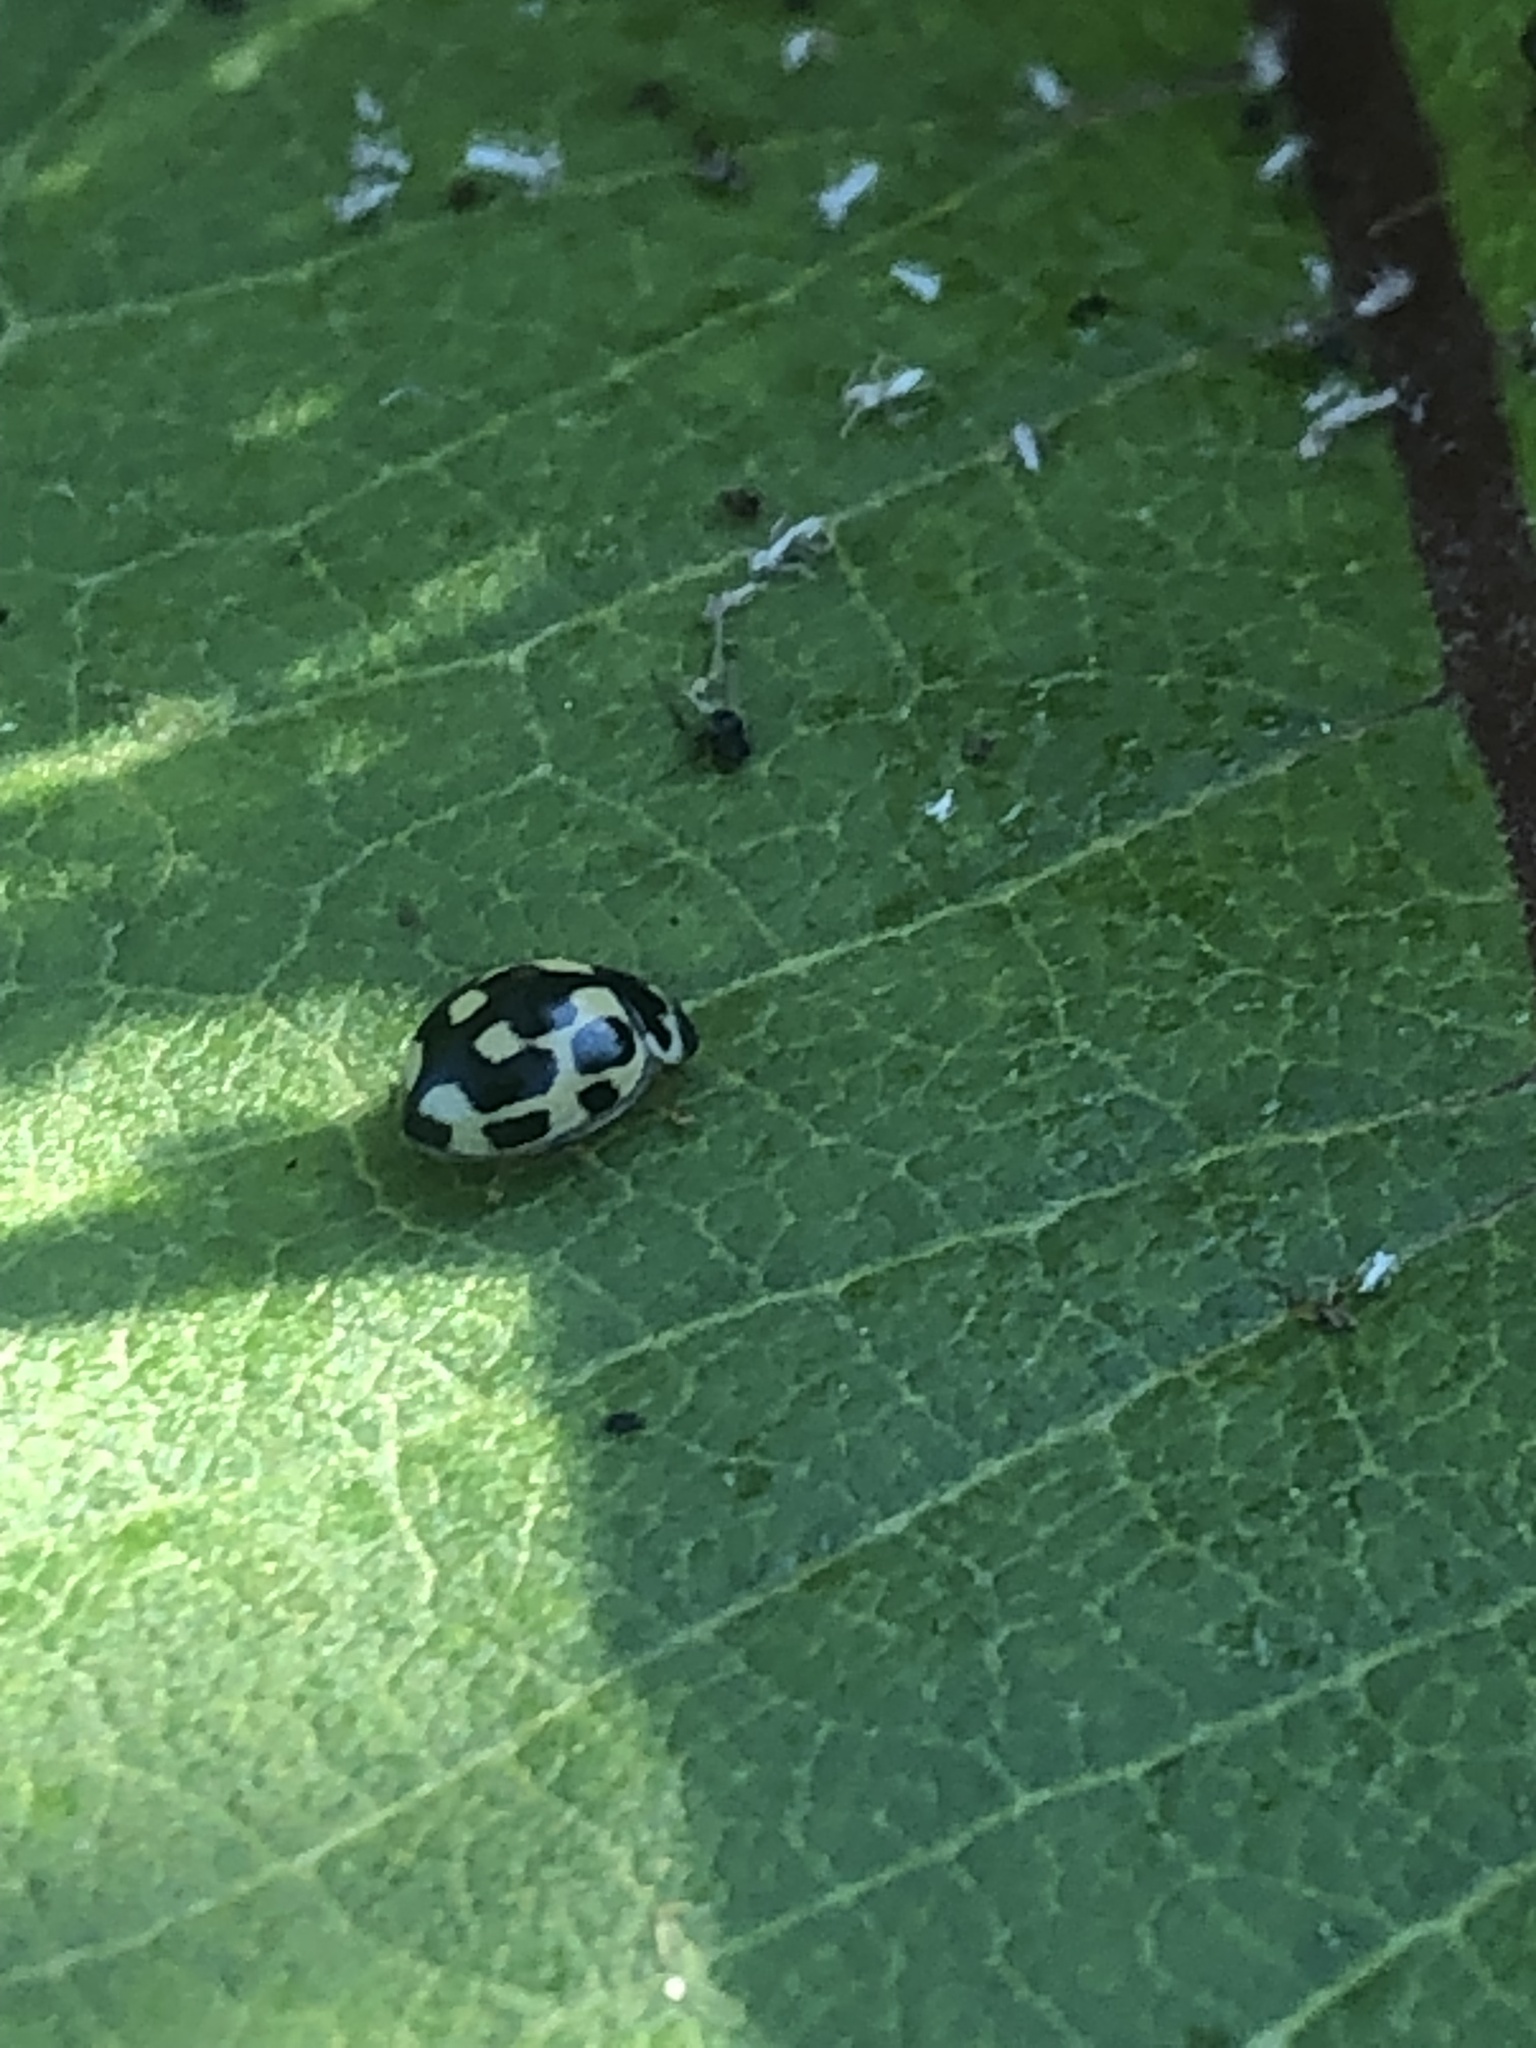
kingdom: Animalia
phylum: Arthropoda
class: Insecta
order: Coleoptera
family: Coccinellidae
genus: Propylaea
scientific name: Propylaea quatuordecimpunctata
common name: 14-spotted ladybird beetle
